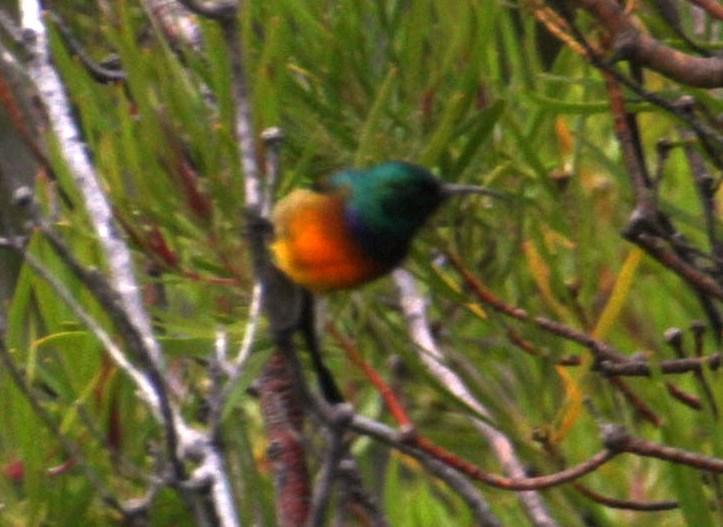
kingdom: Animalia
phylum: Chordata
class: Aves
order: Passeriformes
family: Nectariniidae
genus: Anthobaphes
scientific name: Anthobaphes violacea
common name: Orange-breasted sunbird
